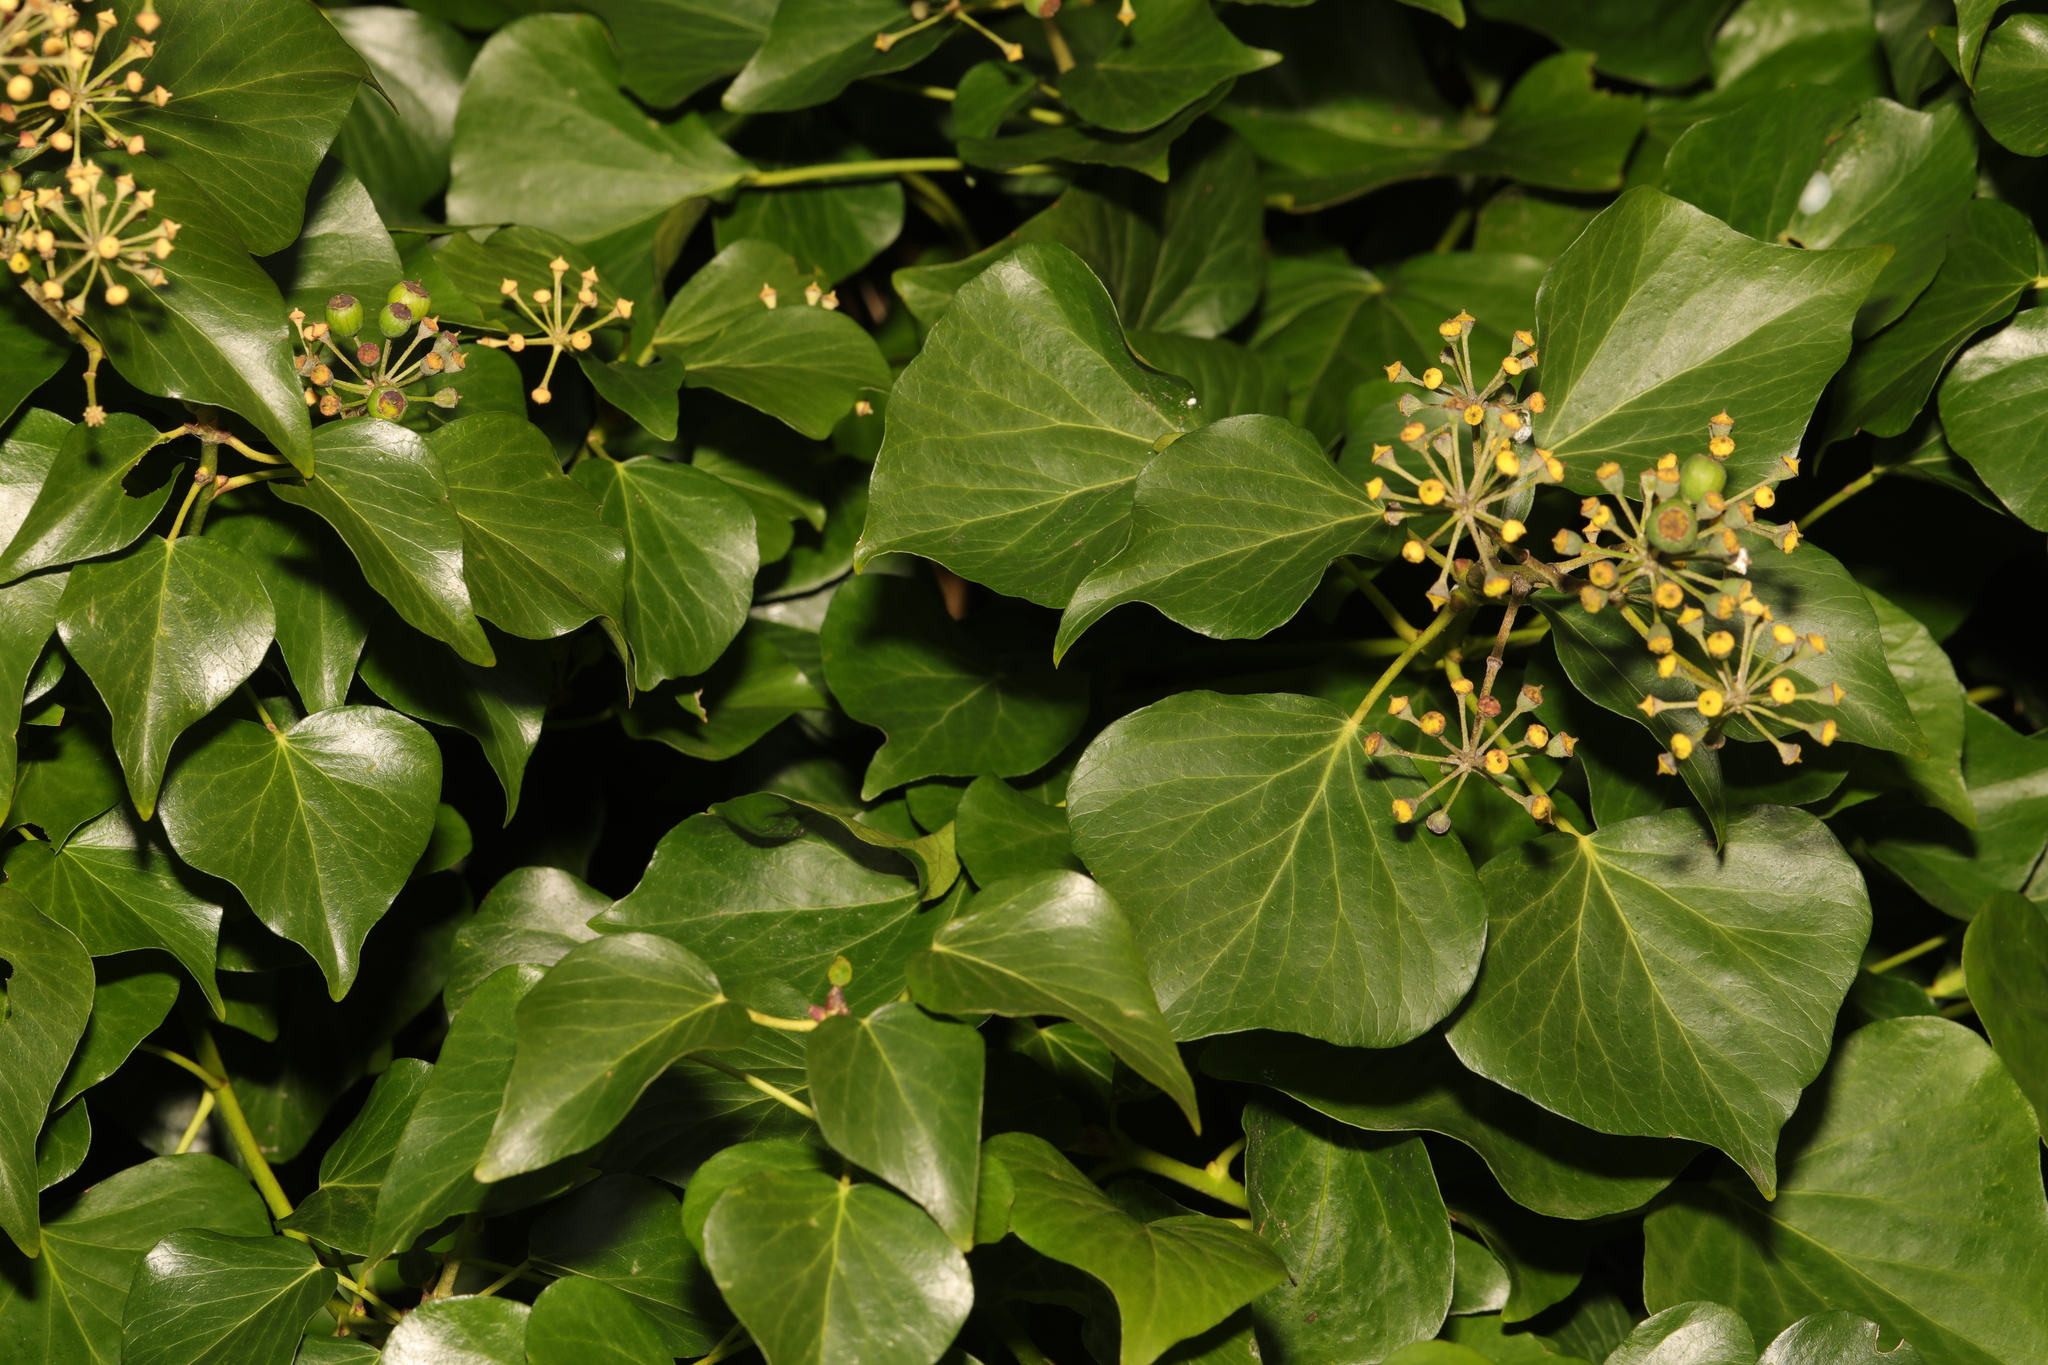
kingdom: Plantae
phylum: Tracheophyta
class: Magnoliopsida
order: Apiales
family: Araliaceae
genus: Hedera
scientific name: Hedera hibernica
